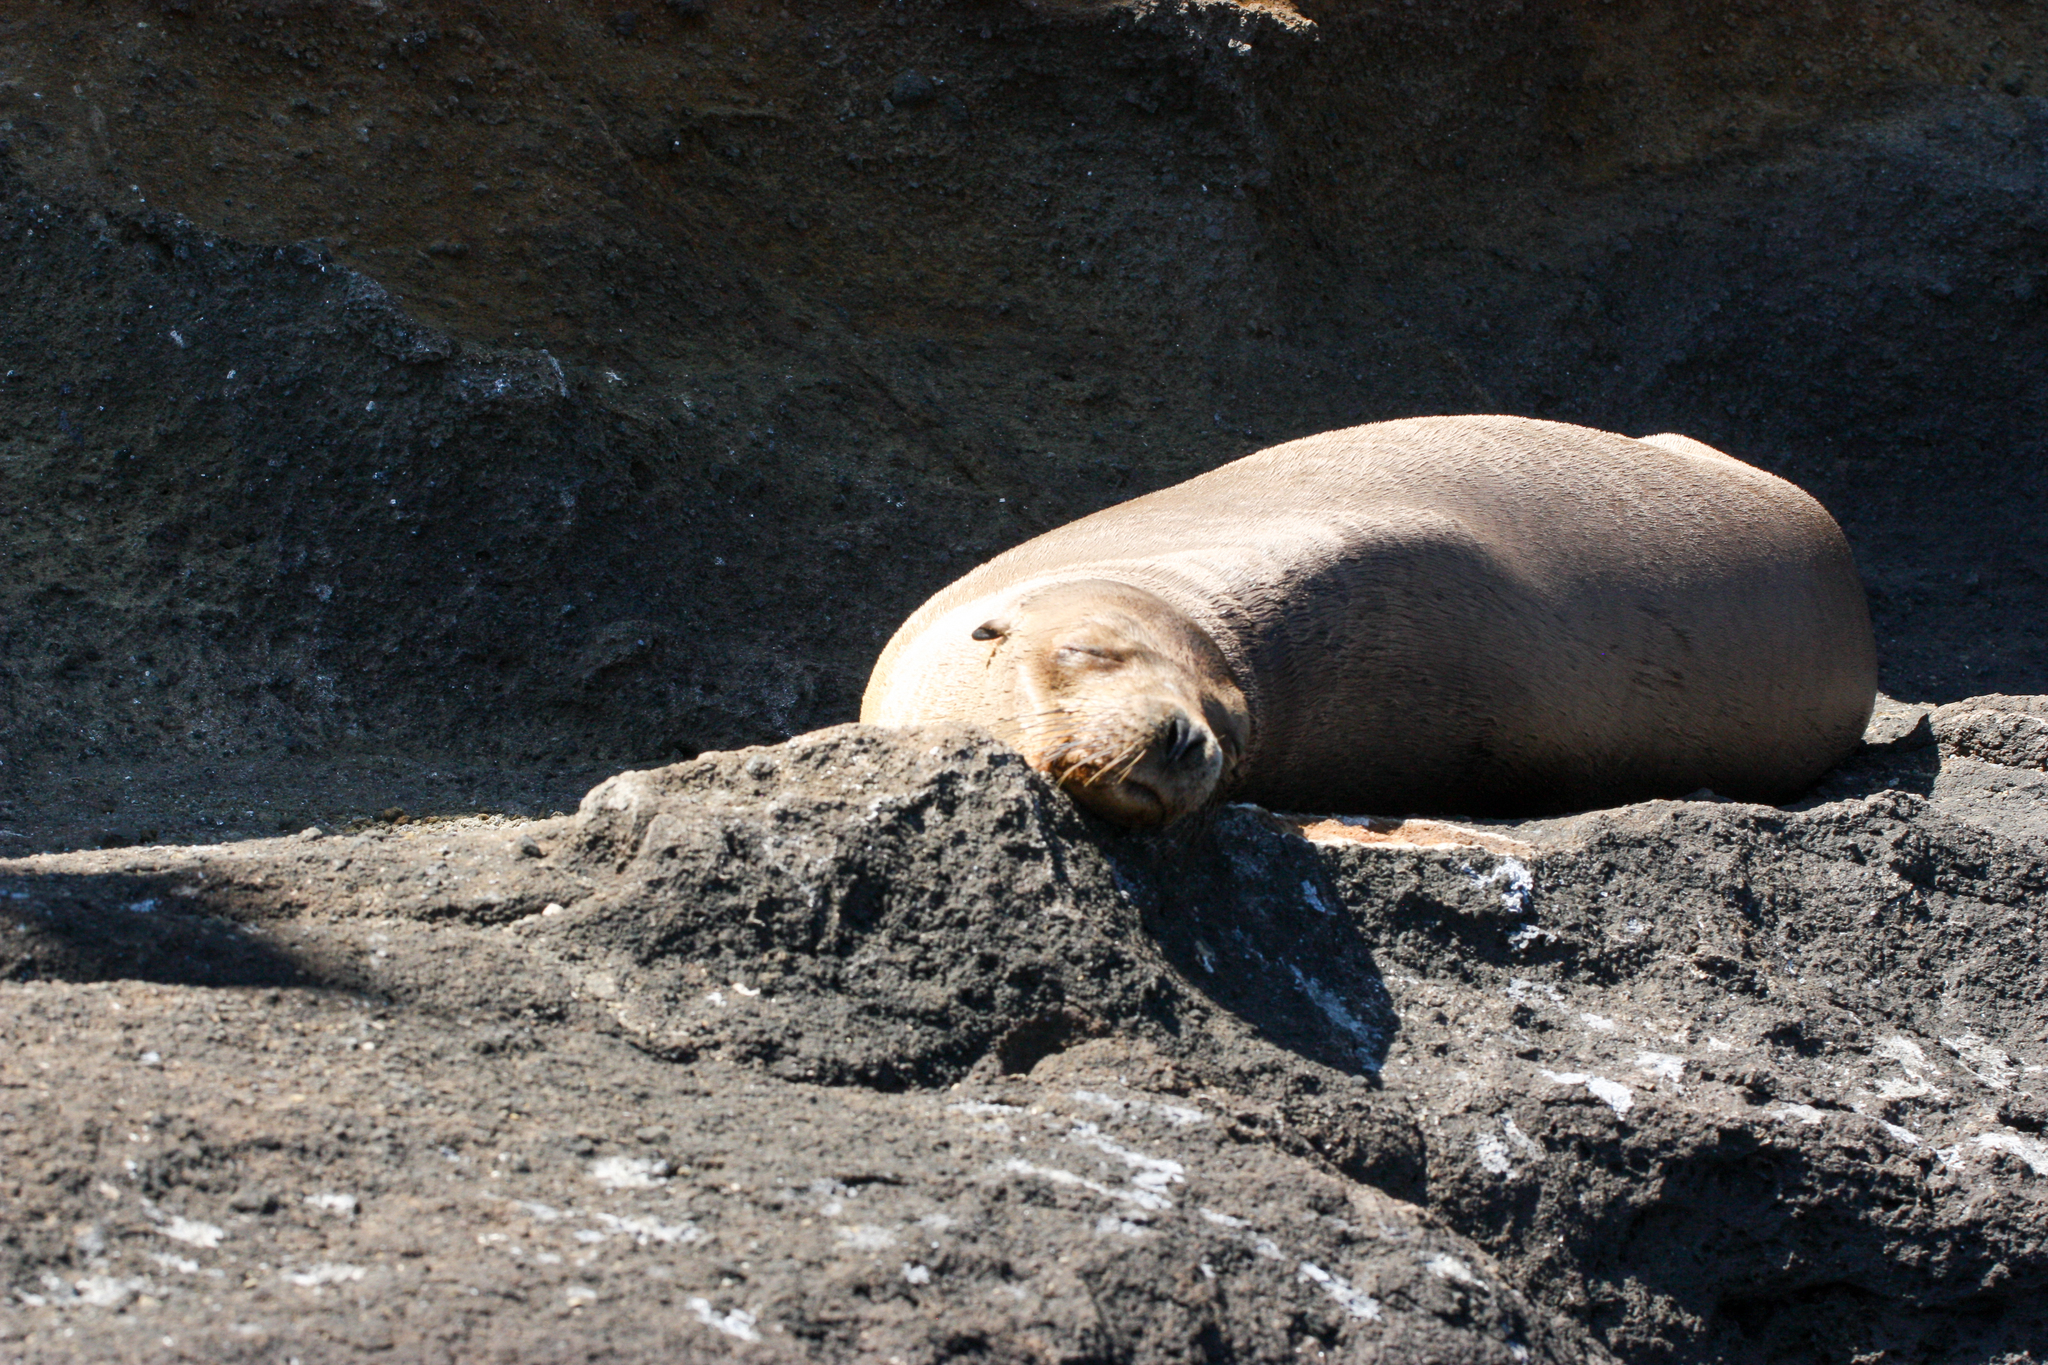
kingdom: Animalia
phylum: Chordata
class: Mammalia
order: Carnivora
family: Otariidae
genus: Zalophus
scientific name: Zalophus wollebaeki
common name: Galapagos sea lion
